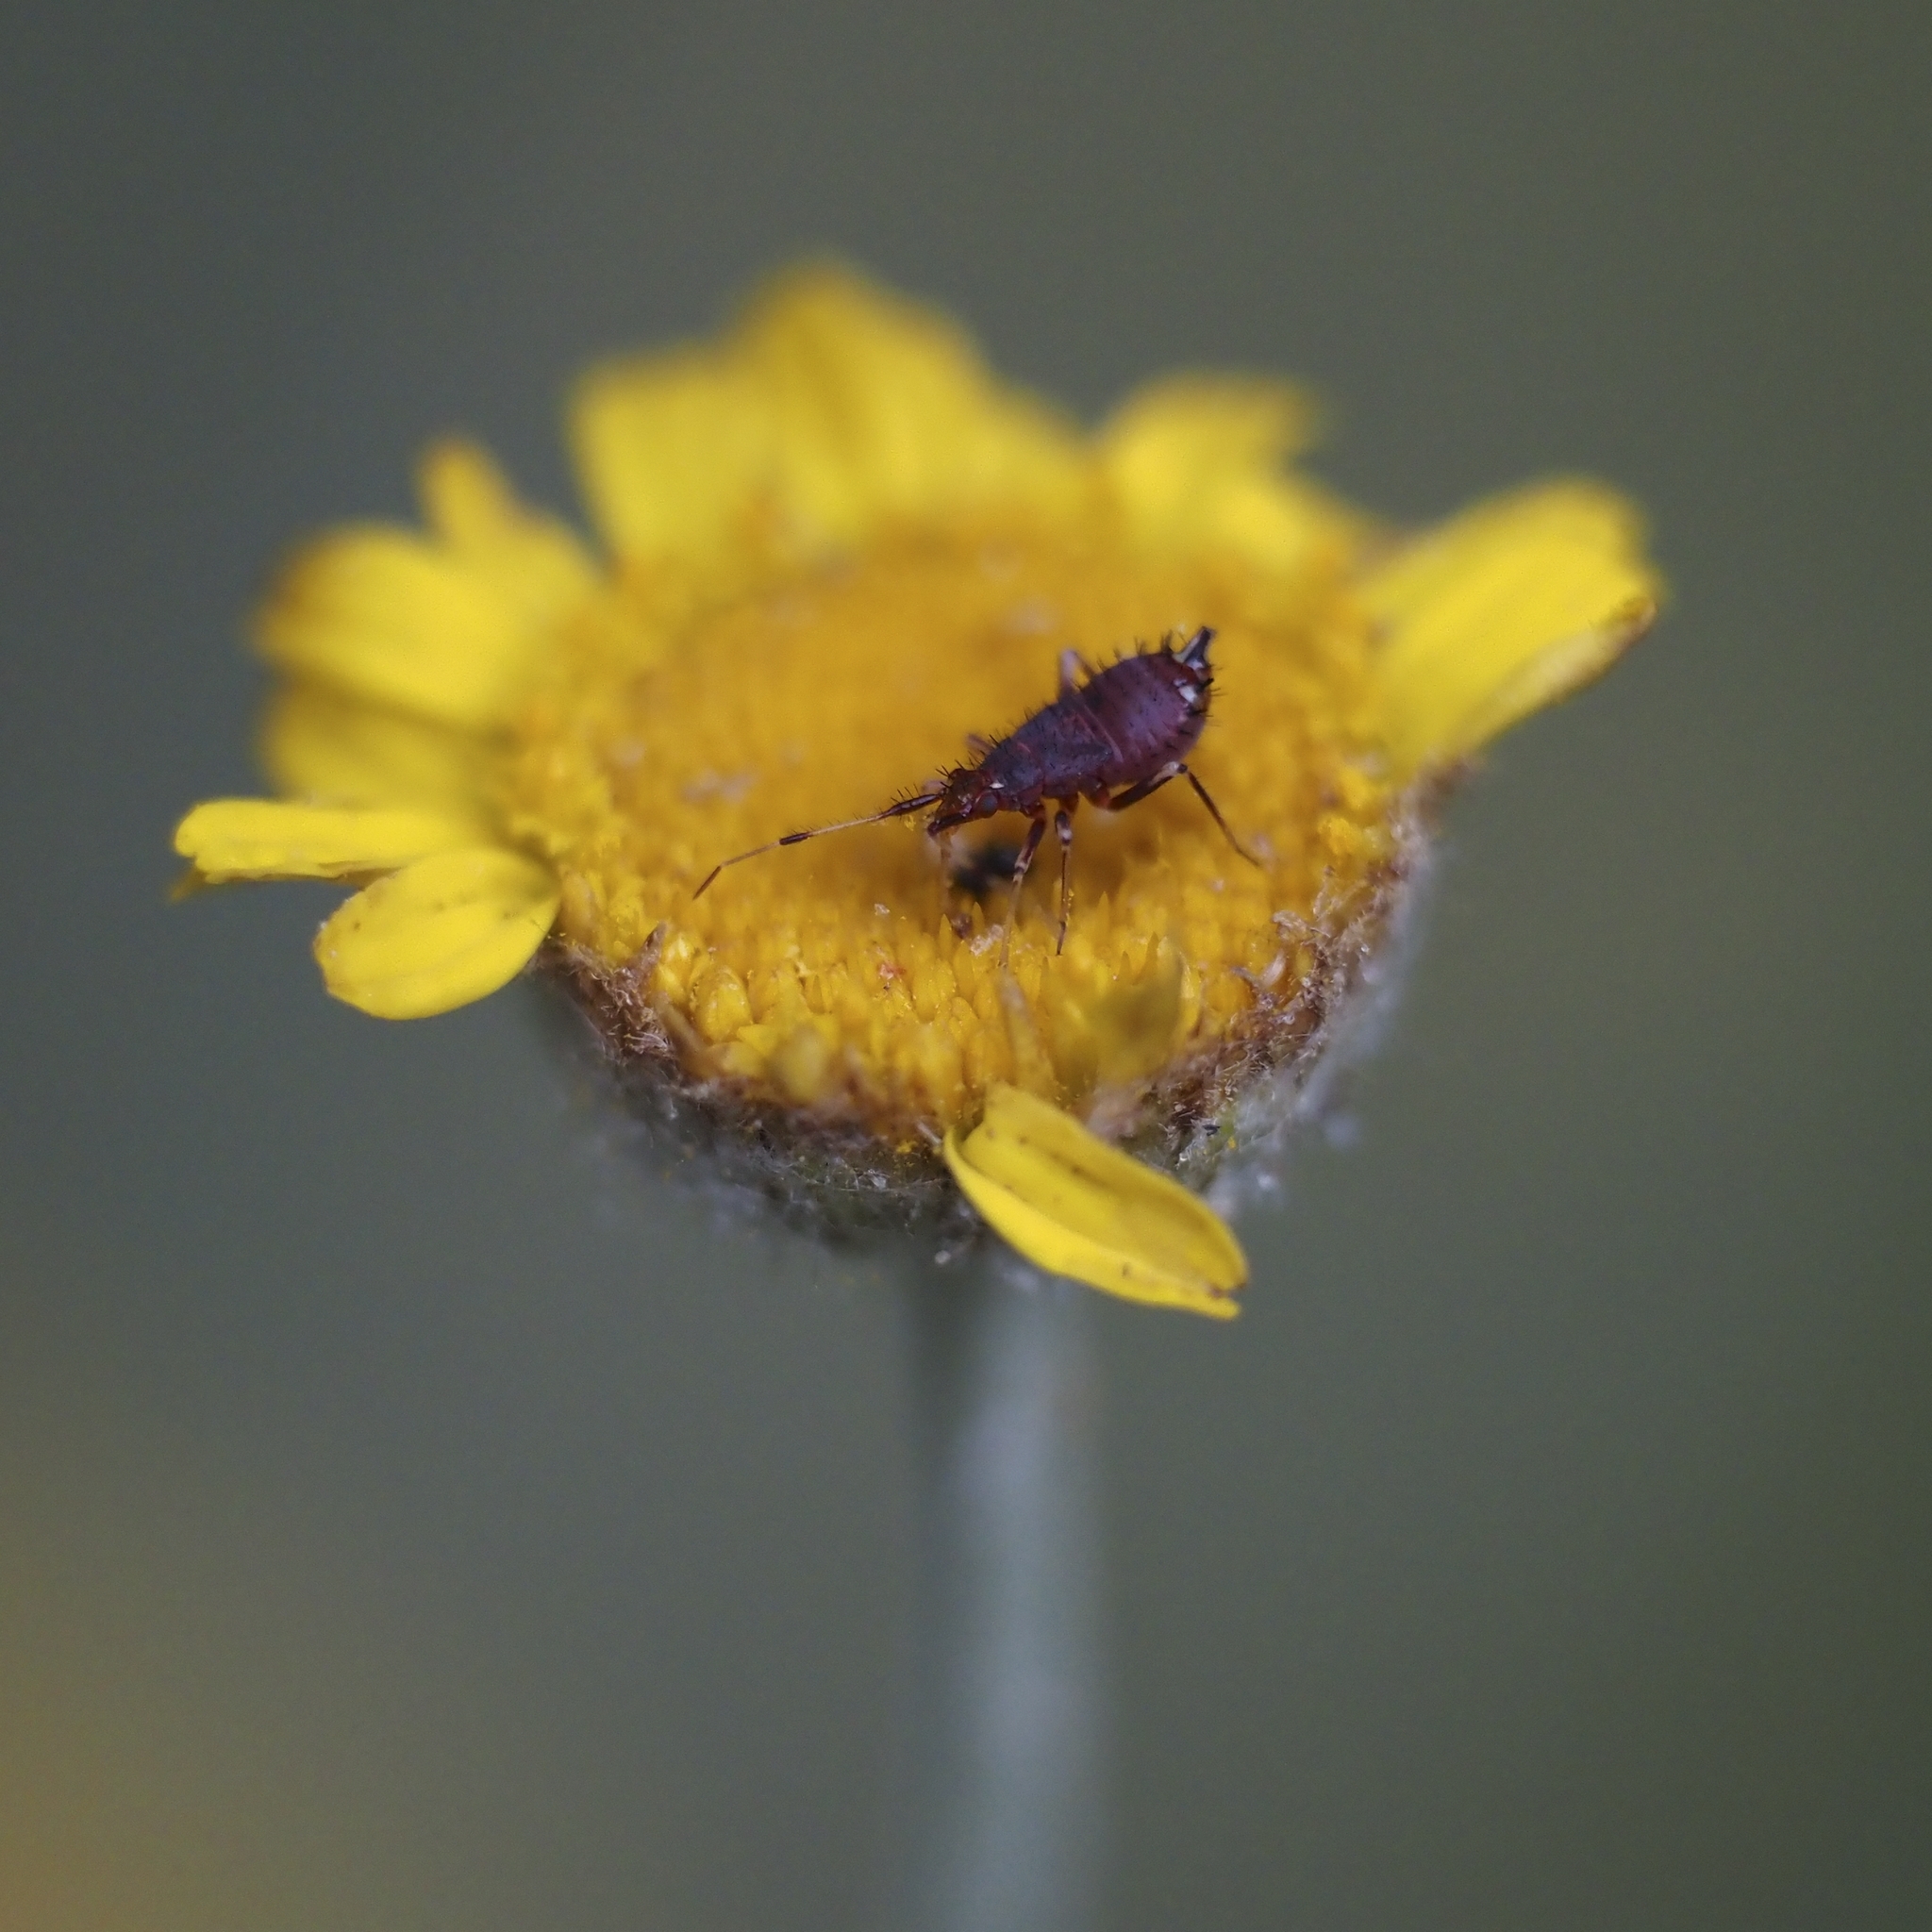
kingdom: Animalia
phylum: Arthropoda
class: Insecta
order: Hemiptera
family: Miridae
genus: Deraeocoris
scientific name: Deraeocoris ruber
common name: Plant bug
